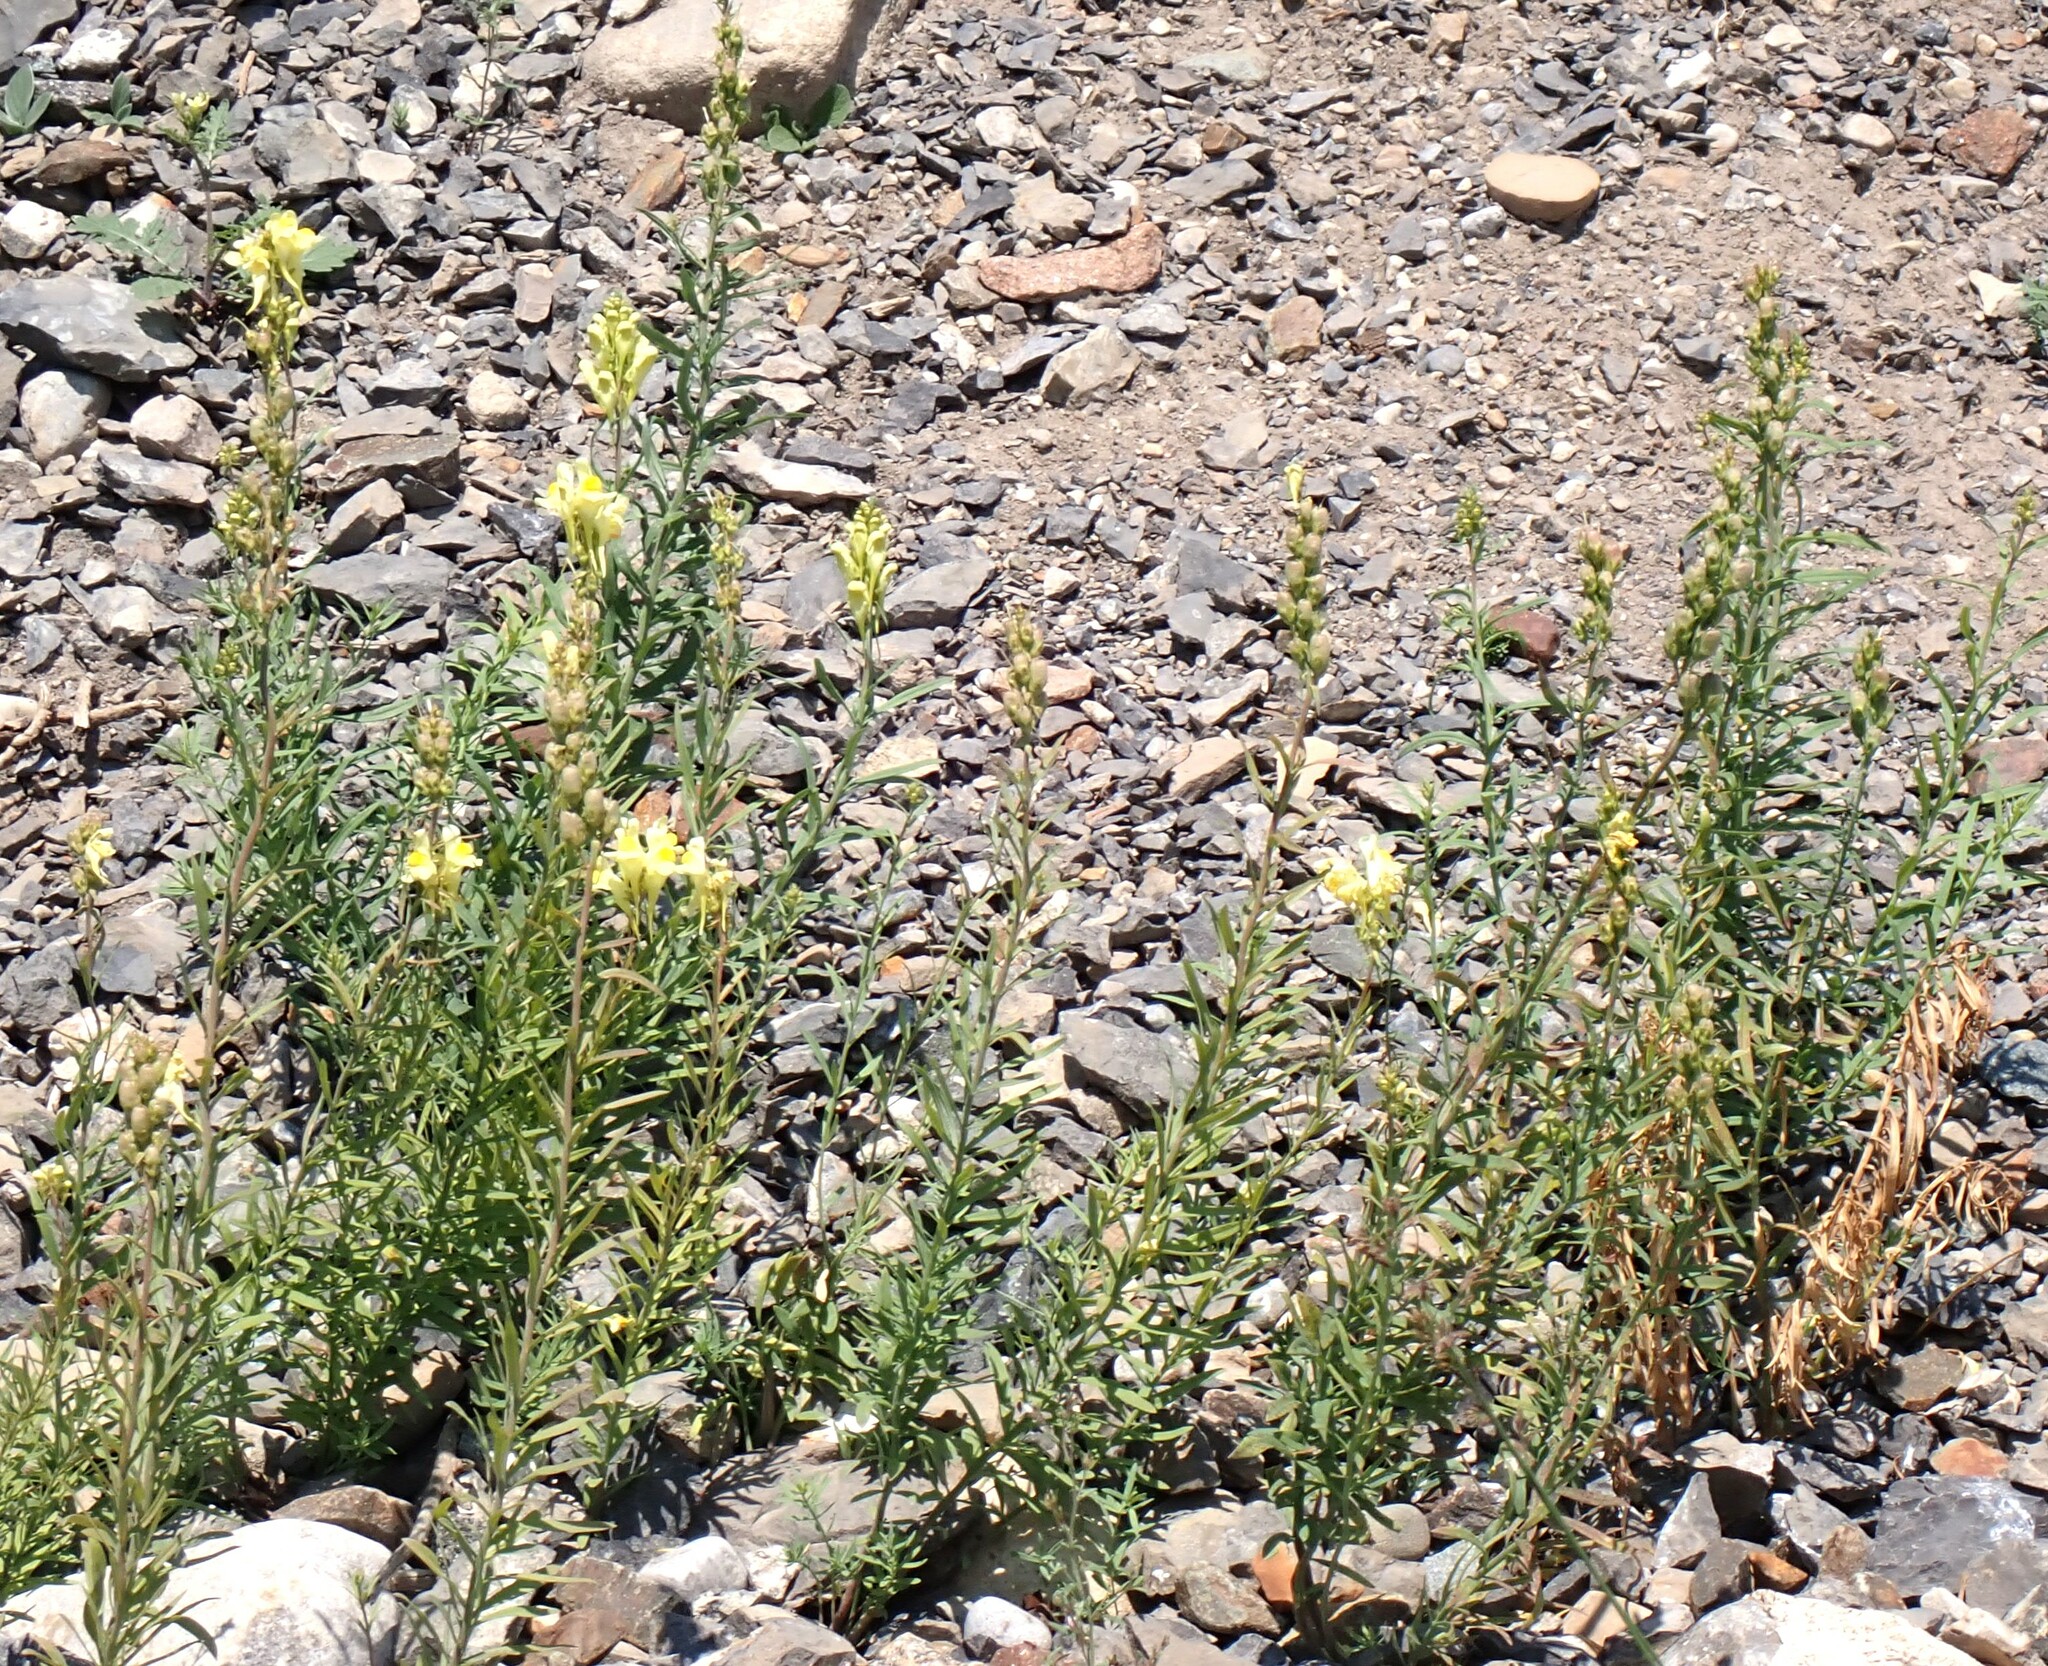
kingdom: Plantae
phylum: Tracheophyta
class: Magnoliopsida
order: Lamiales
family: Plantaginaceae
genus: Linaria
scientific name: Linaria vulgaris
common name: Butter and eggs
